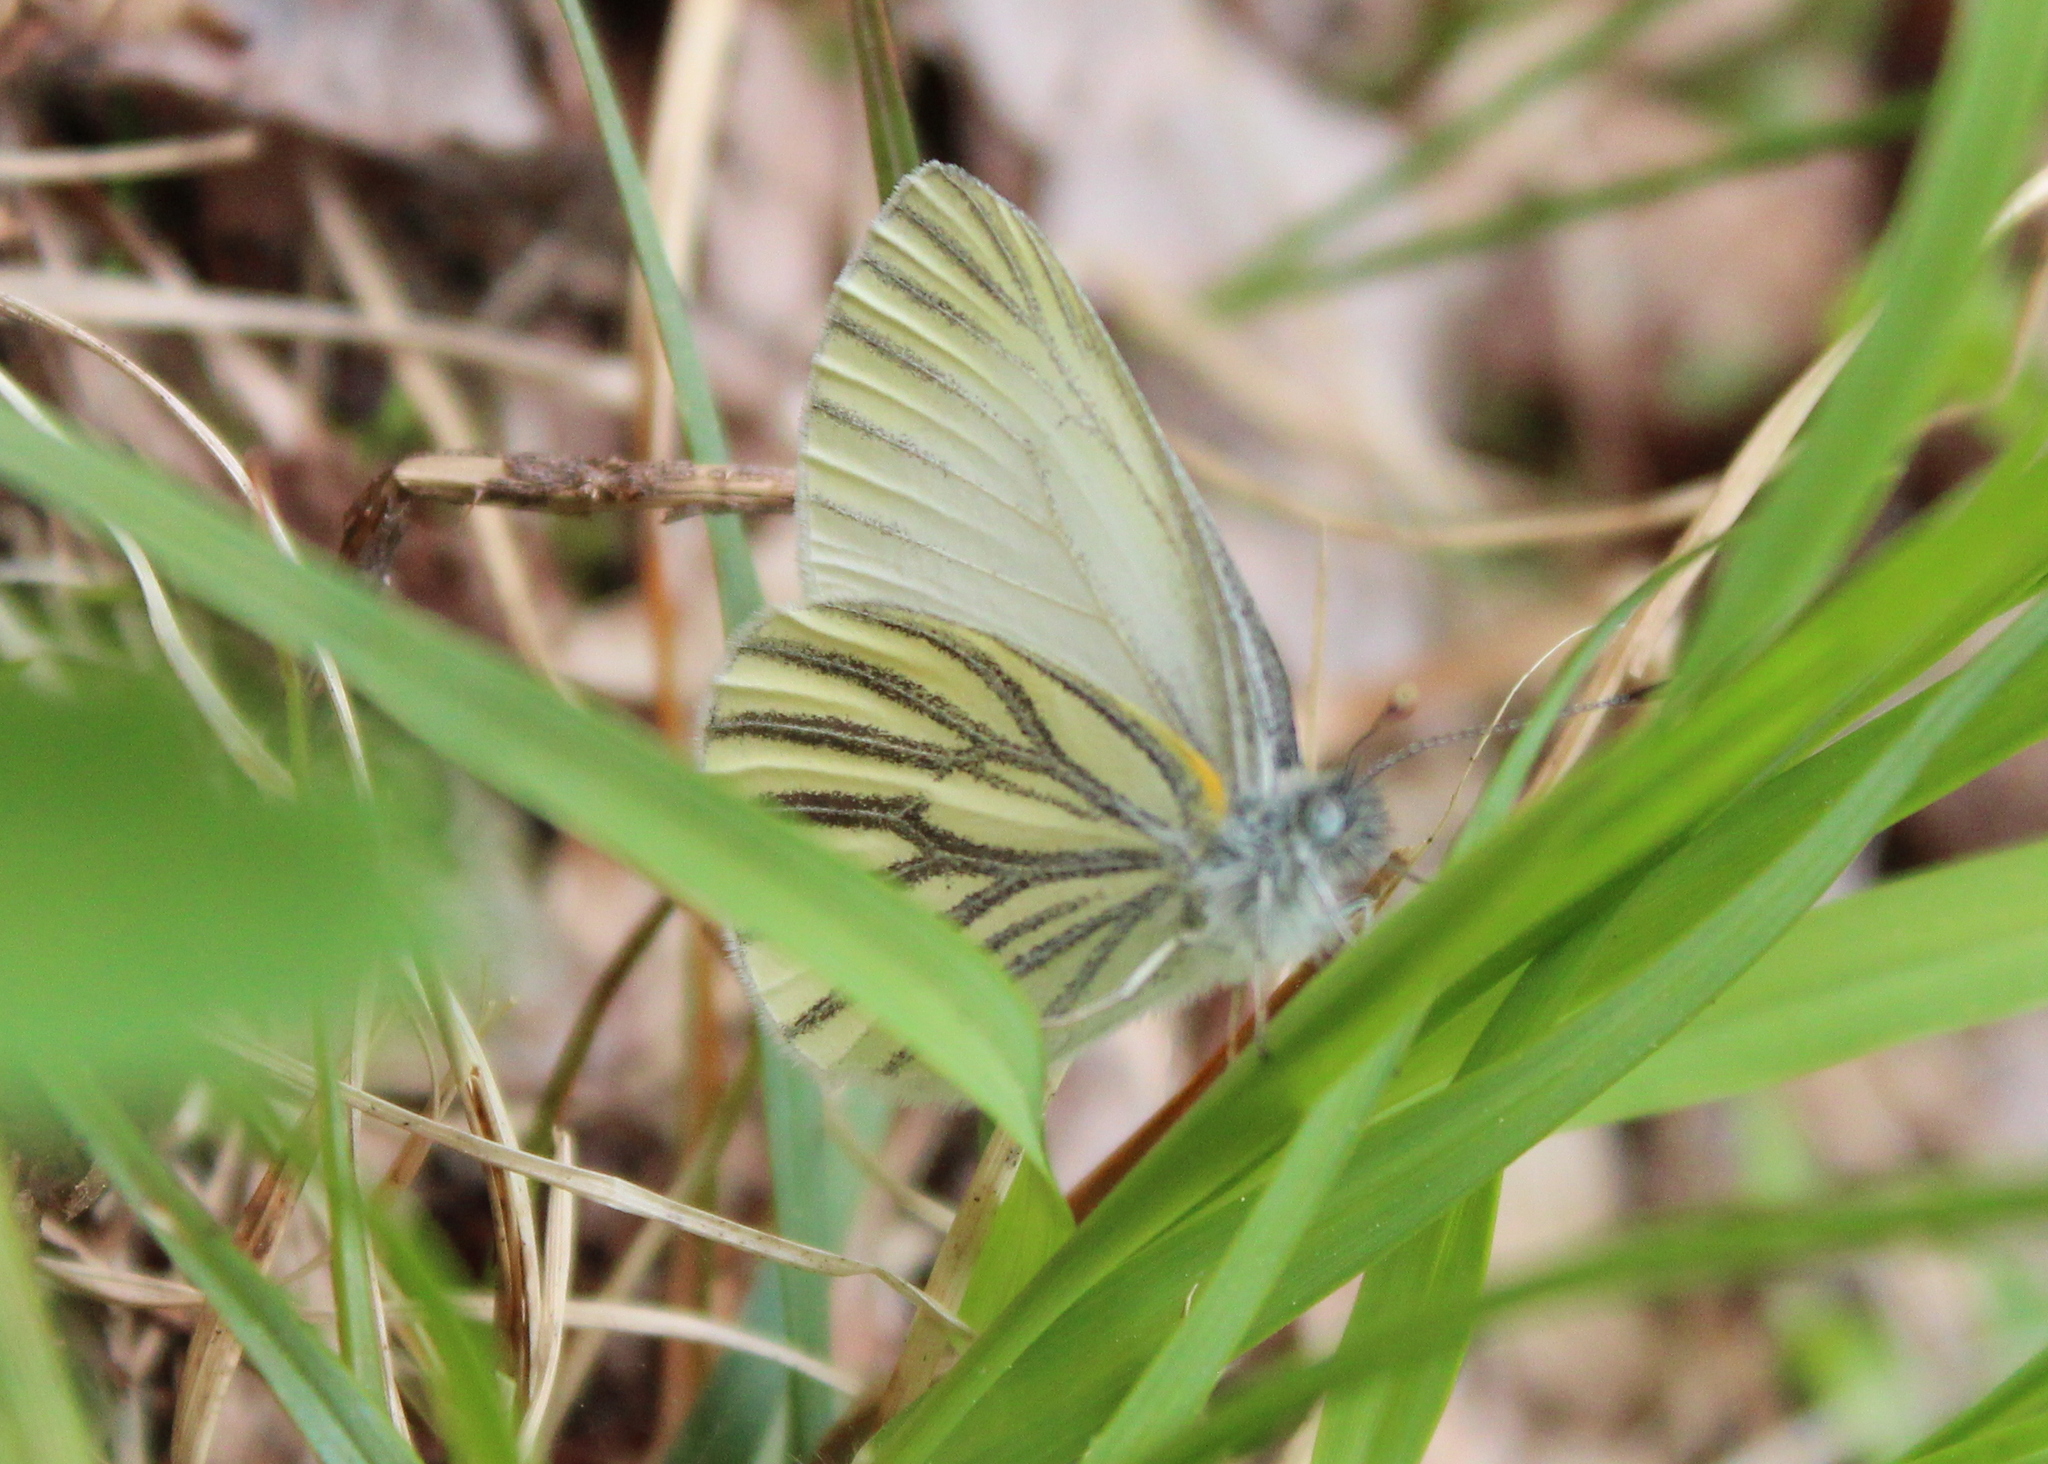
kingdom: Animalia
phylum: Arthropoda
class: Insecta
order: Lepidoptera
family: Pieridae
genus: Pieris
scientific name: Pieris oleracea
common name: Mustard white
